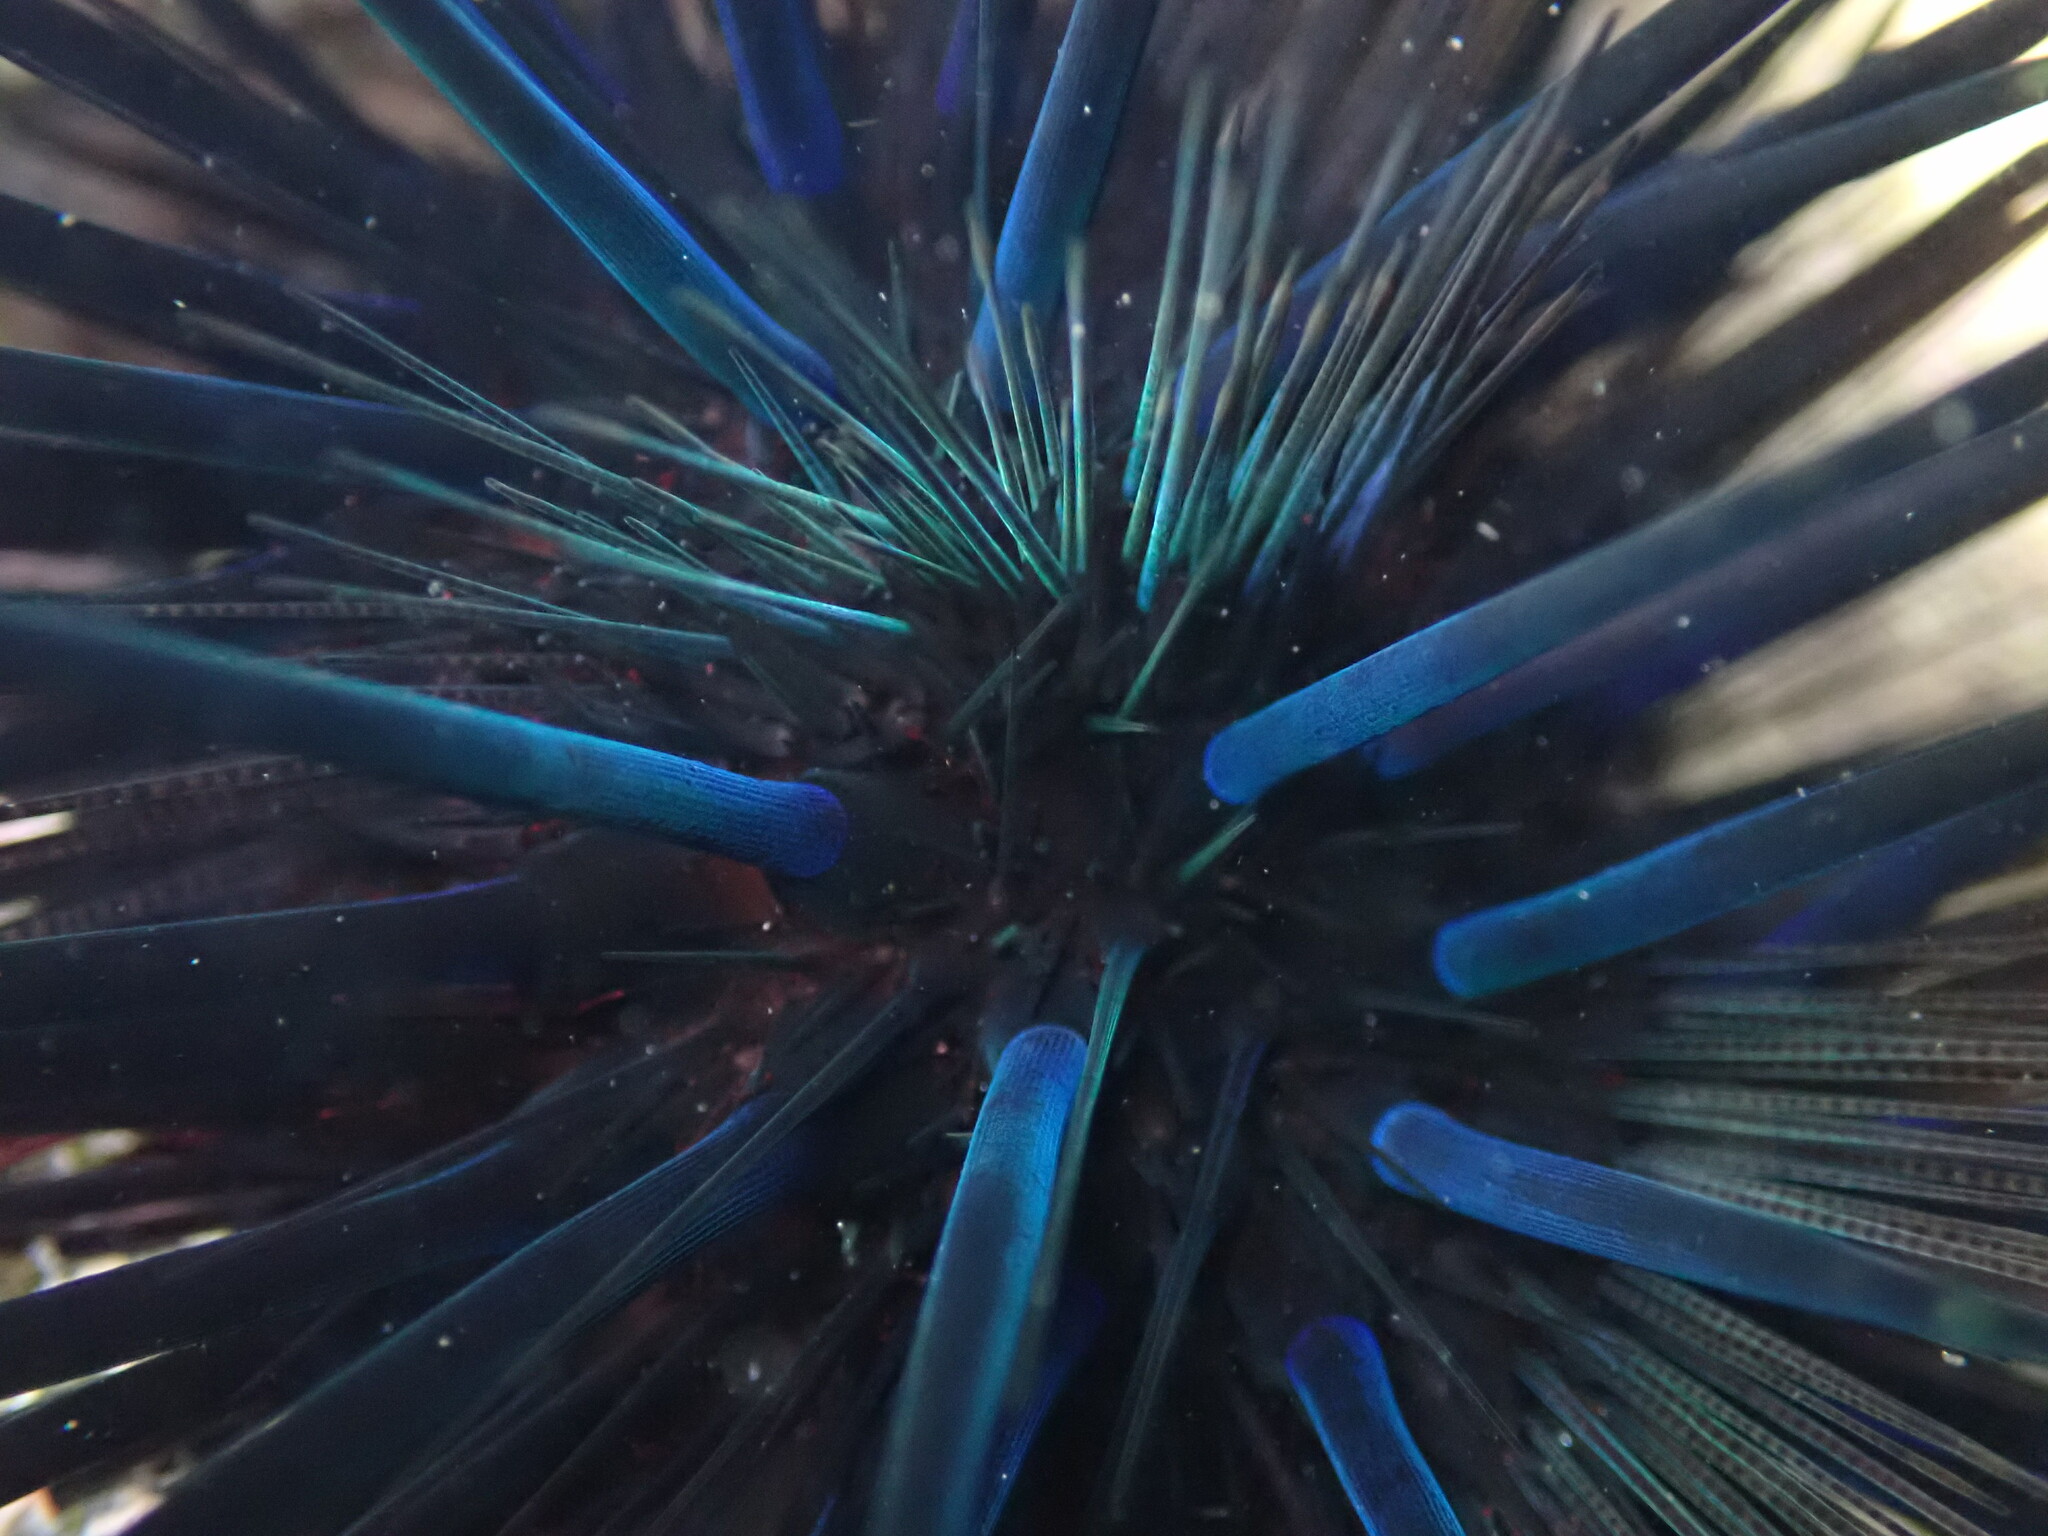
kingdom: Animalia
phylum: Echinodermata
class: Echinoidea
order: Diadematoida
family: Diadematidae
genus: Echinothrix
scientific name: Echinothrix diadema
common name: Schwarzer diademseeigel
